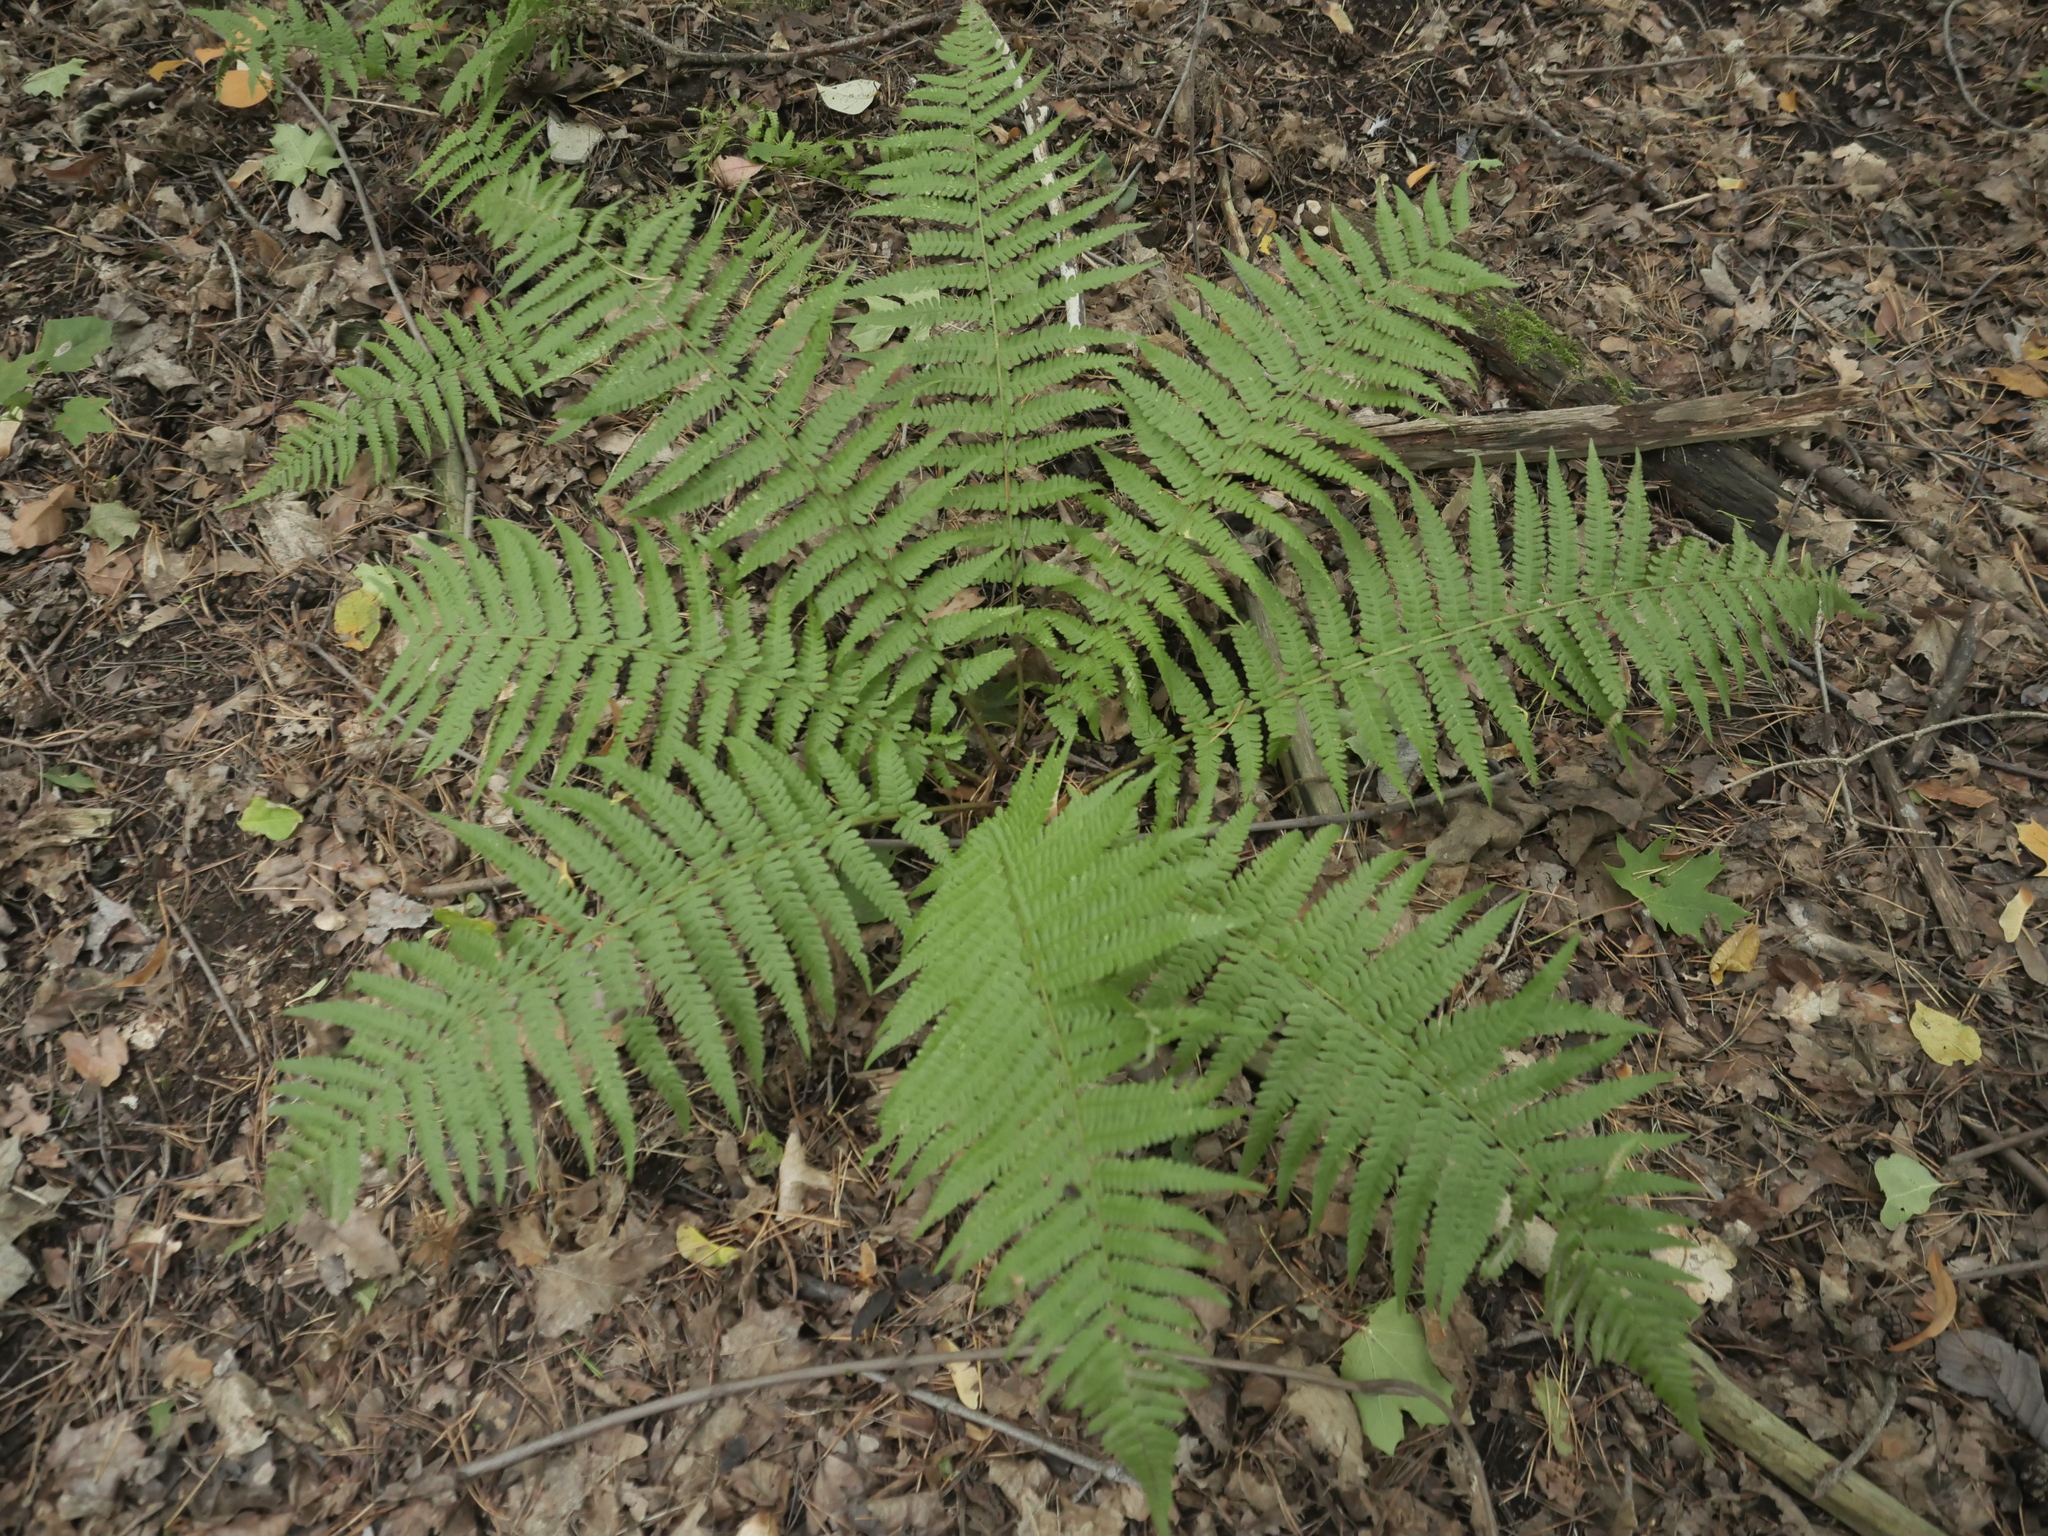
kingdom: Plantae
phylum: Tracheophyta
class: Polypodiopsida
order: Polypodiales
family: Dryopteridaceae
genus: Dryopteris
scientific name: Dryopteris filix-mas
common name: Male fern
